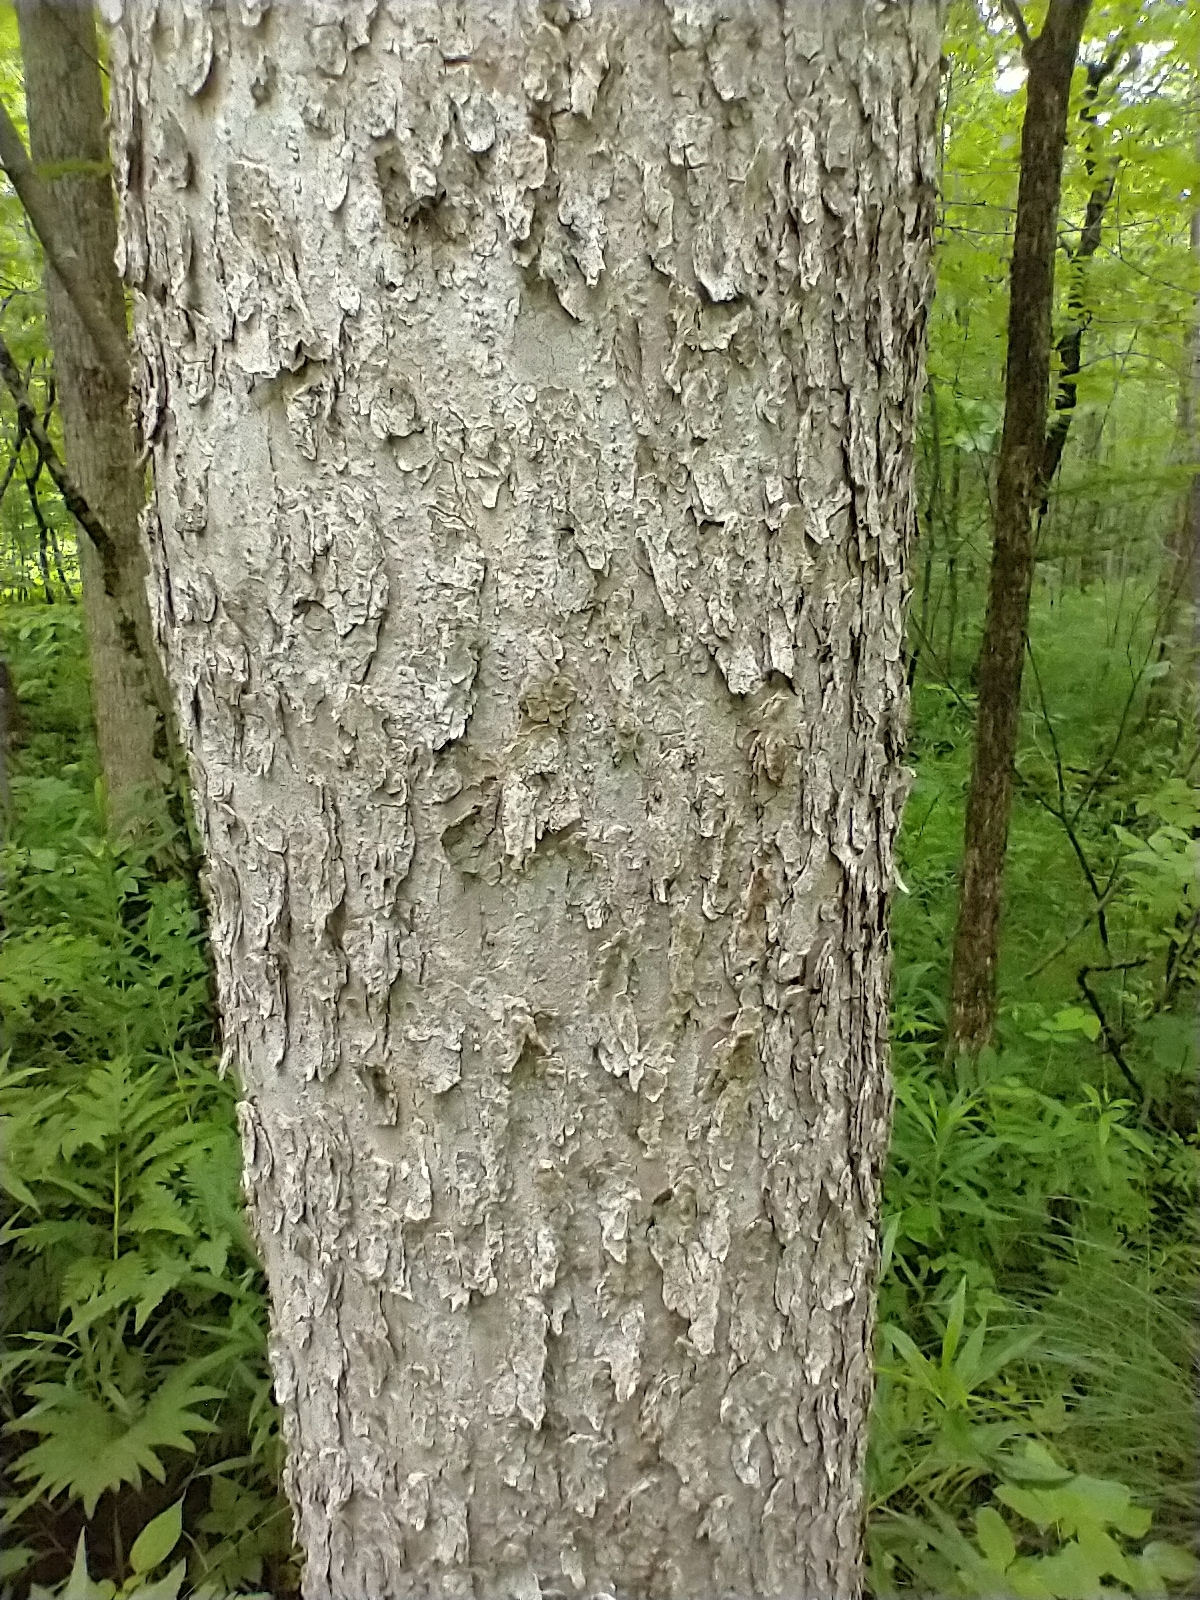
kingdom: Plantae
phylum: Tracheophyta
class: Magnoliopsida
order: Lamiales
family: Oleaceae
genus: Fraxinus
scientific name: Fraxinus nigra
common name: Black ash
